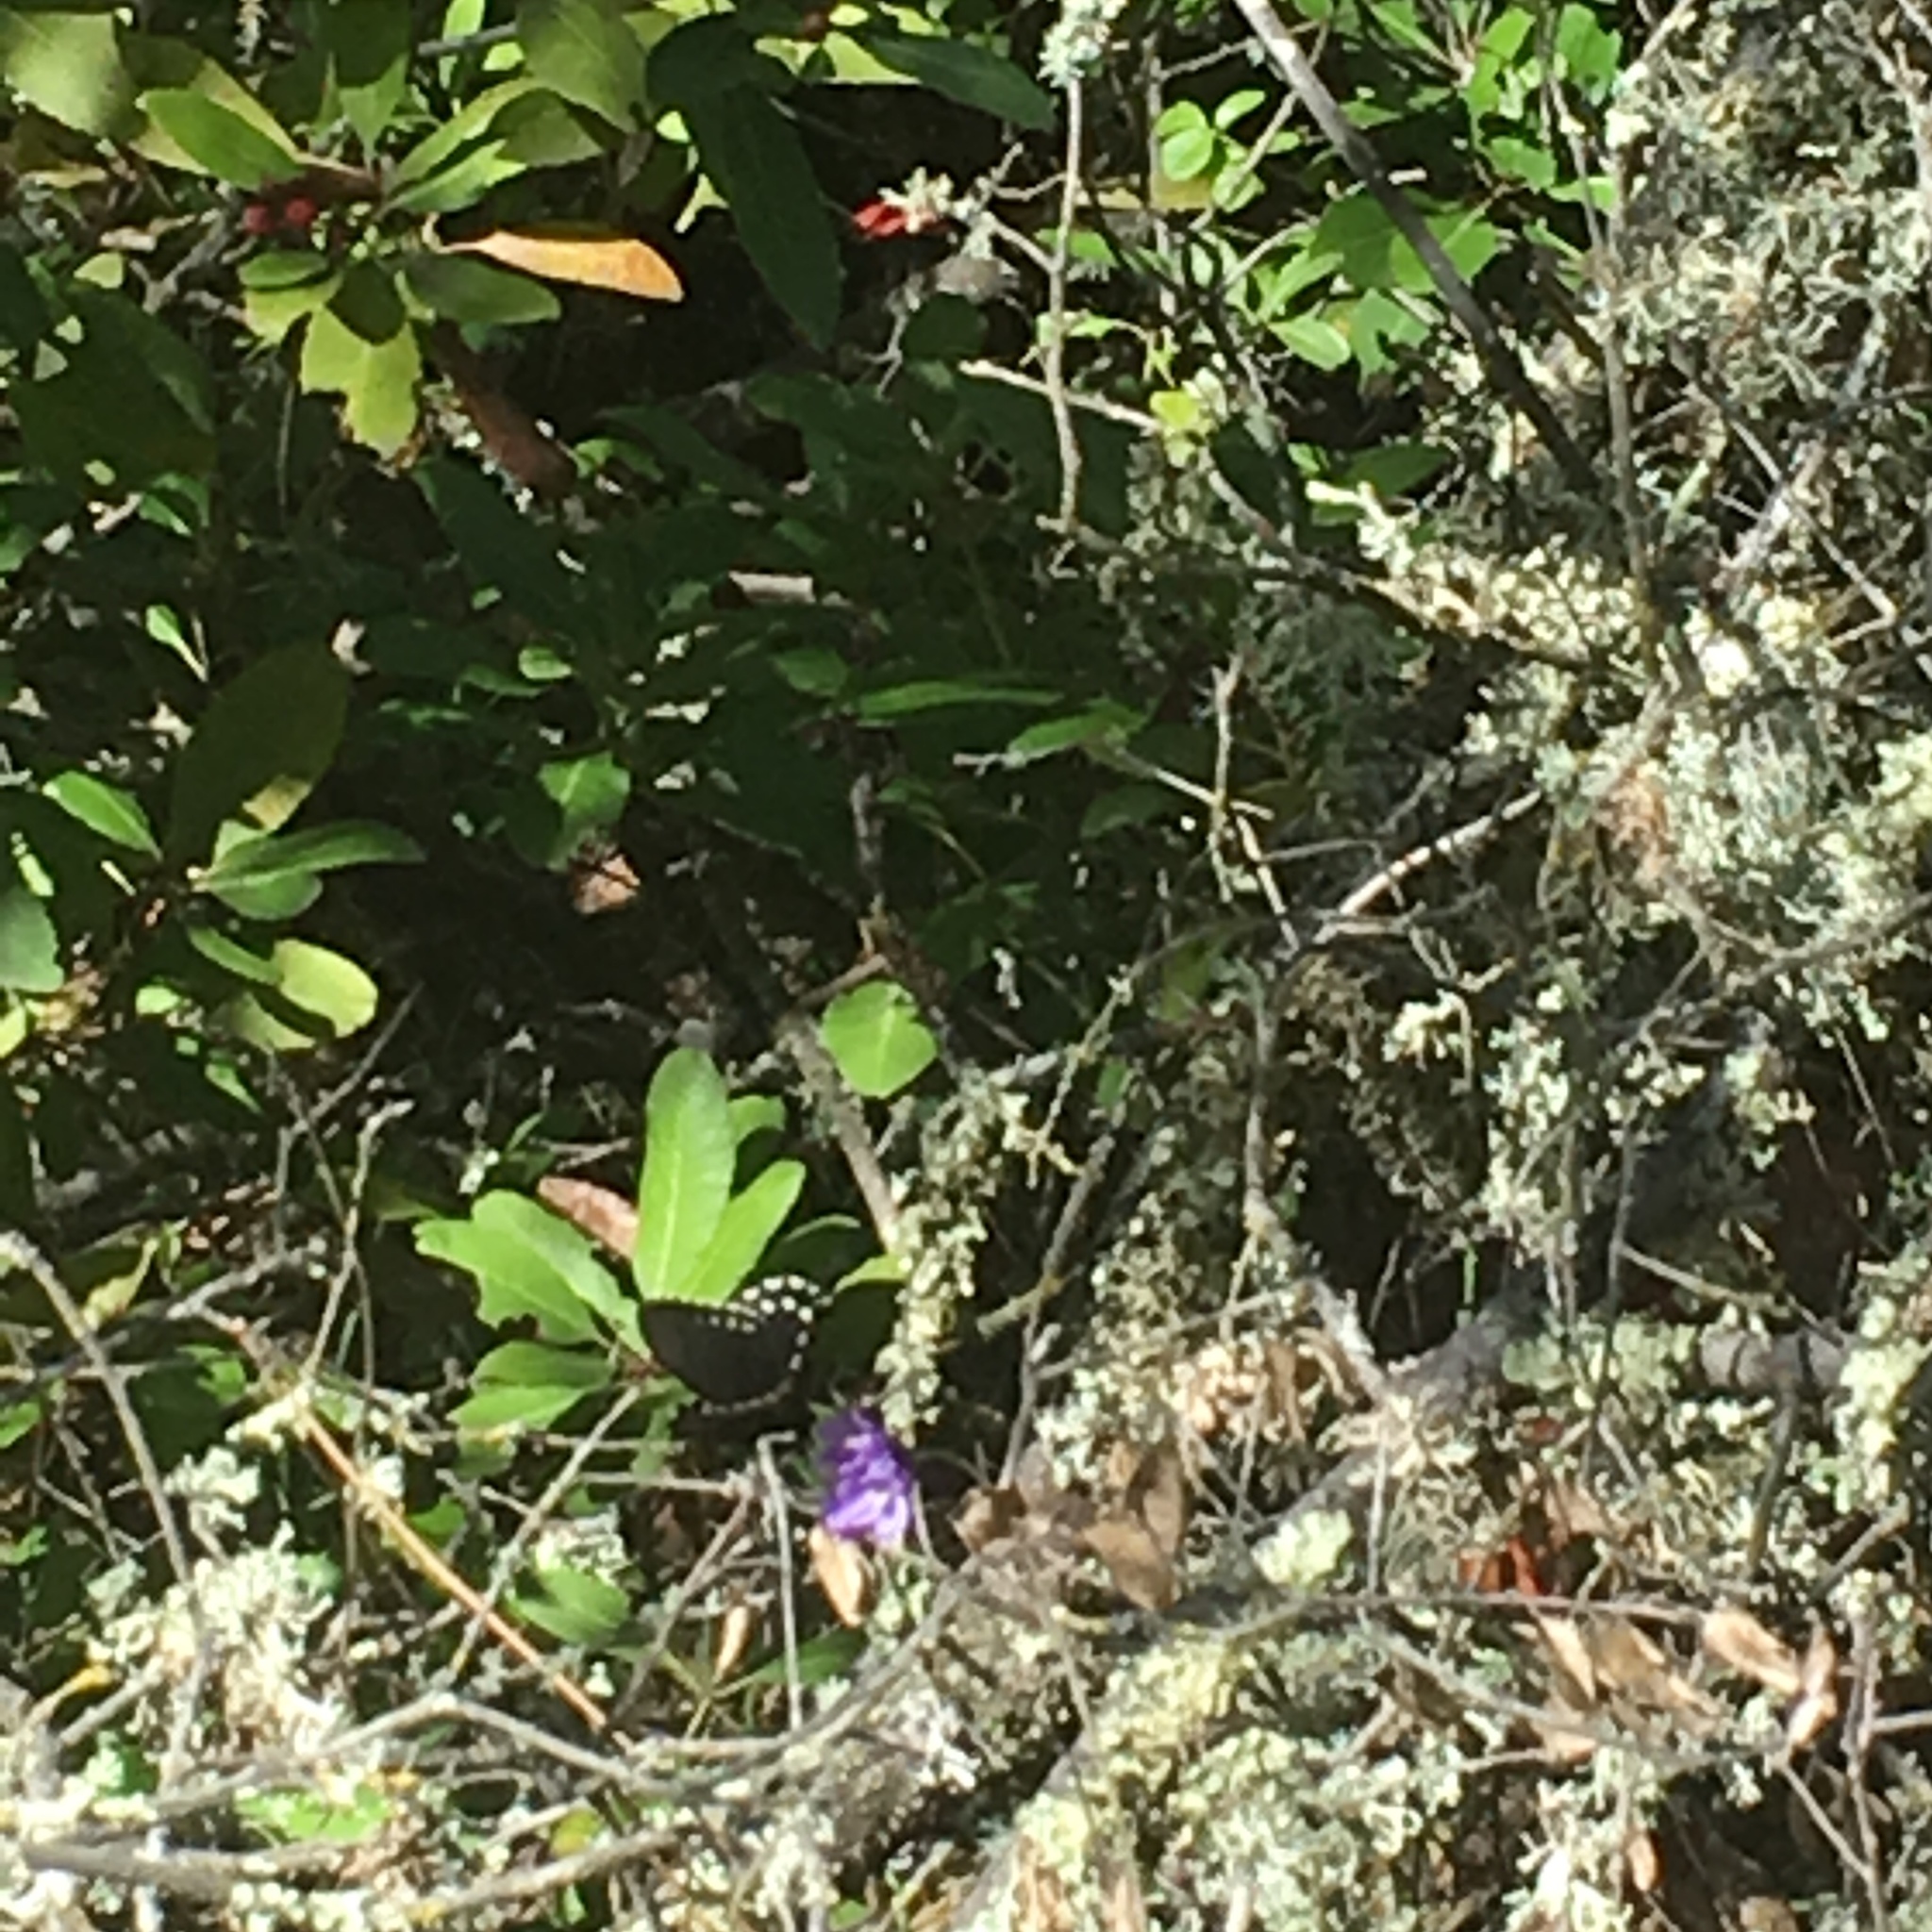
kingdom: Animalia
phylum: Arthropoda
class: Insecta
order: Lepidoptera
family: Papilionidae
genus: Battus
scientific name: Battus philenor
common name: Pipevine swallowtail
